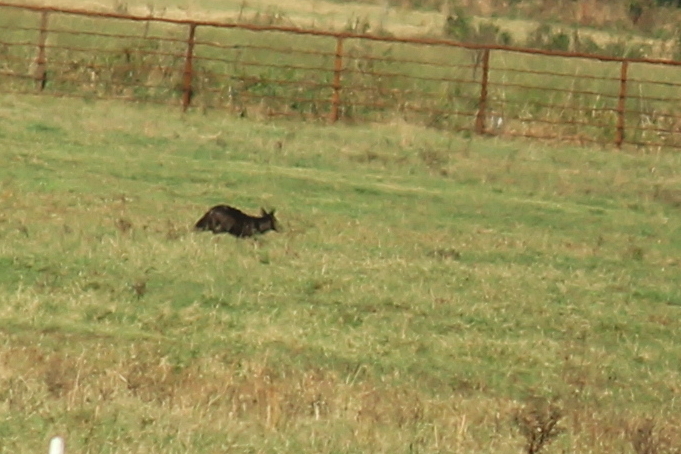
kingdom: Animalia
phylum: Chordata
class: Mammalia
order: Carnivora
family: Canidae
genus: Canis
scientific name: Canis latrans
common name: Coyote
